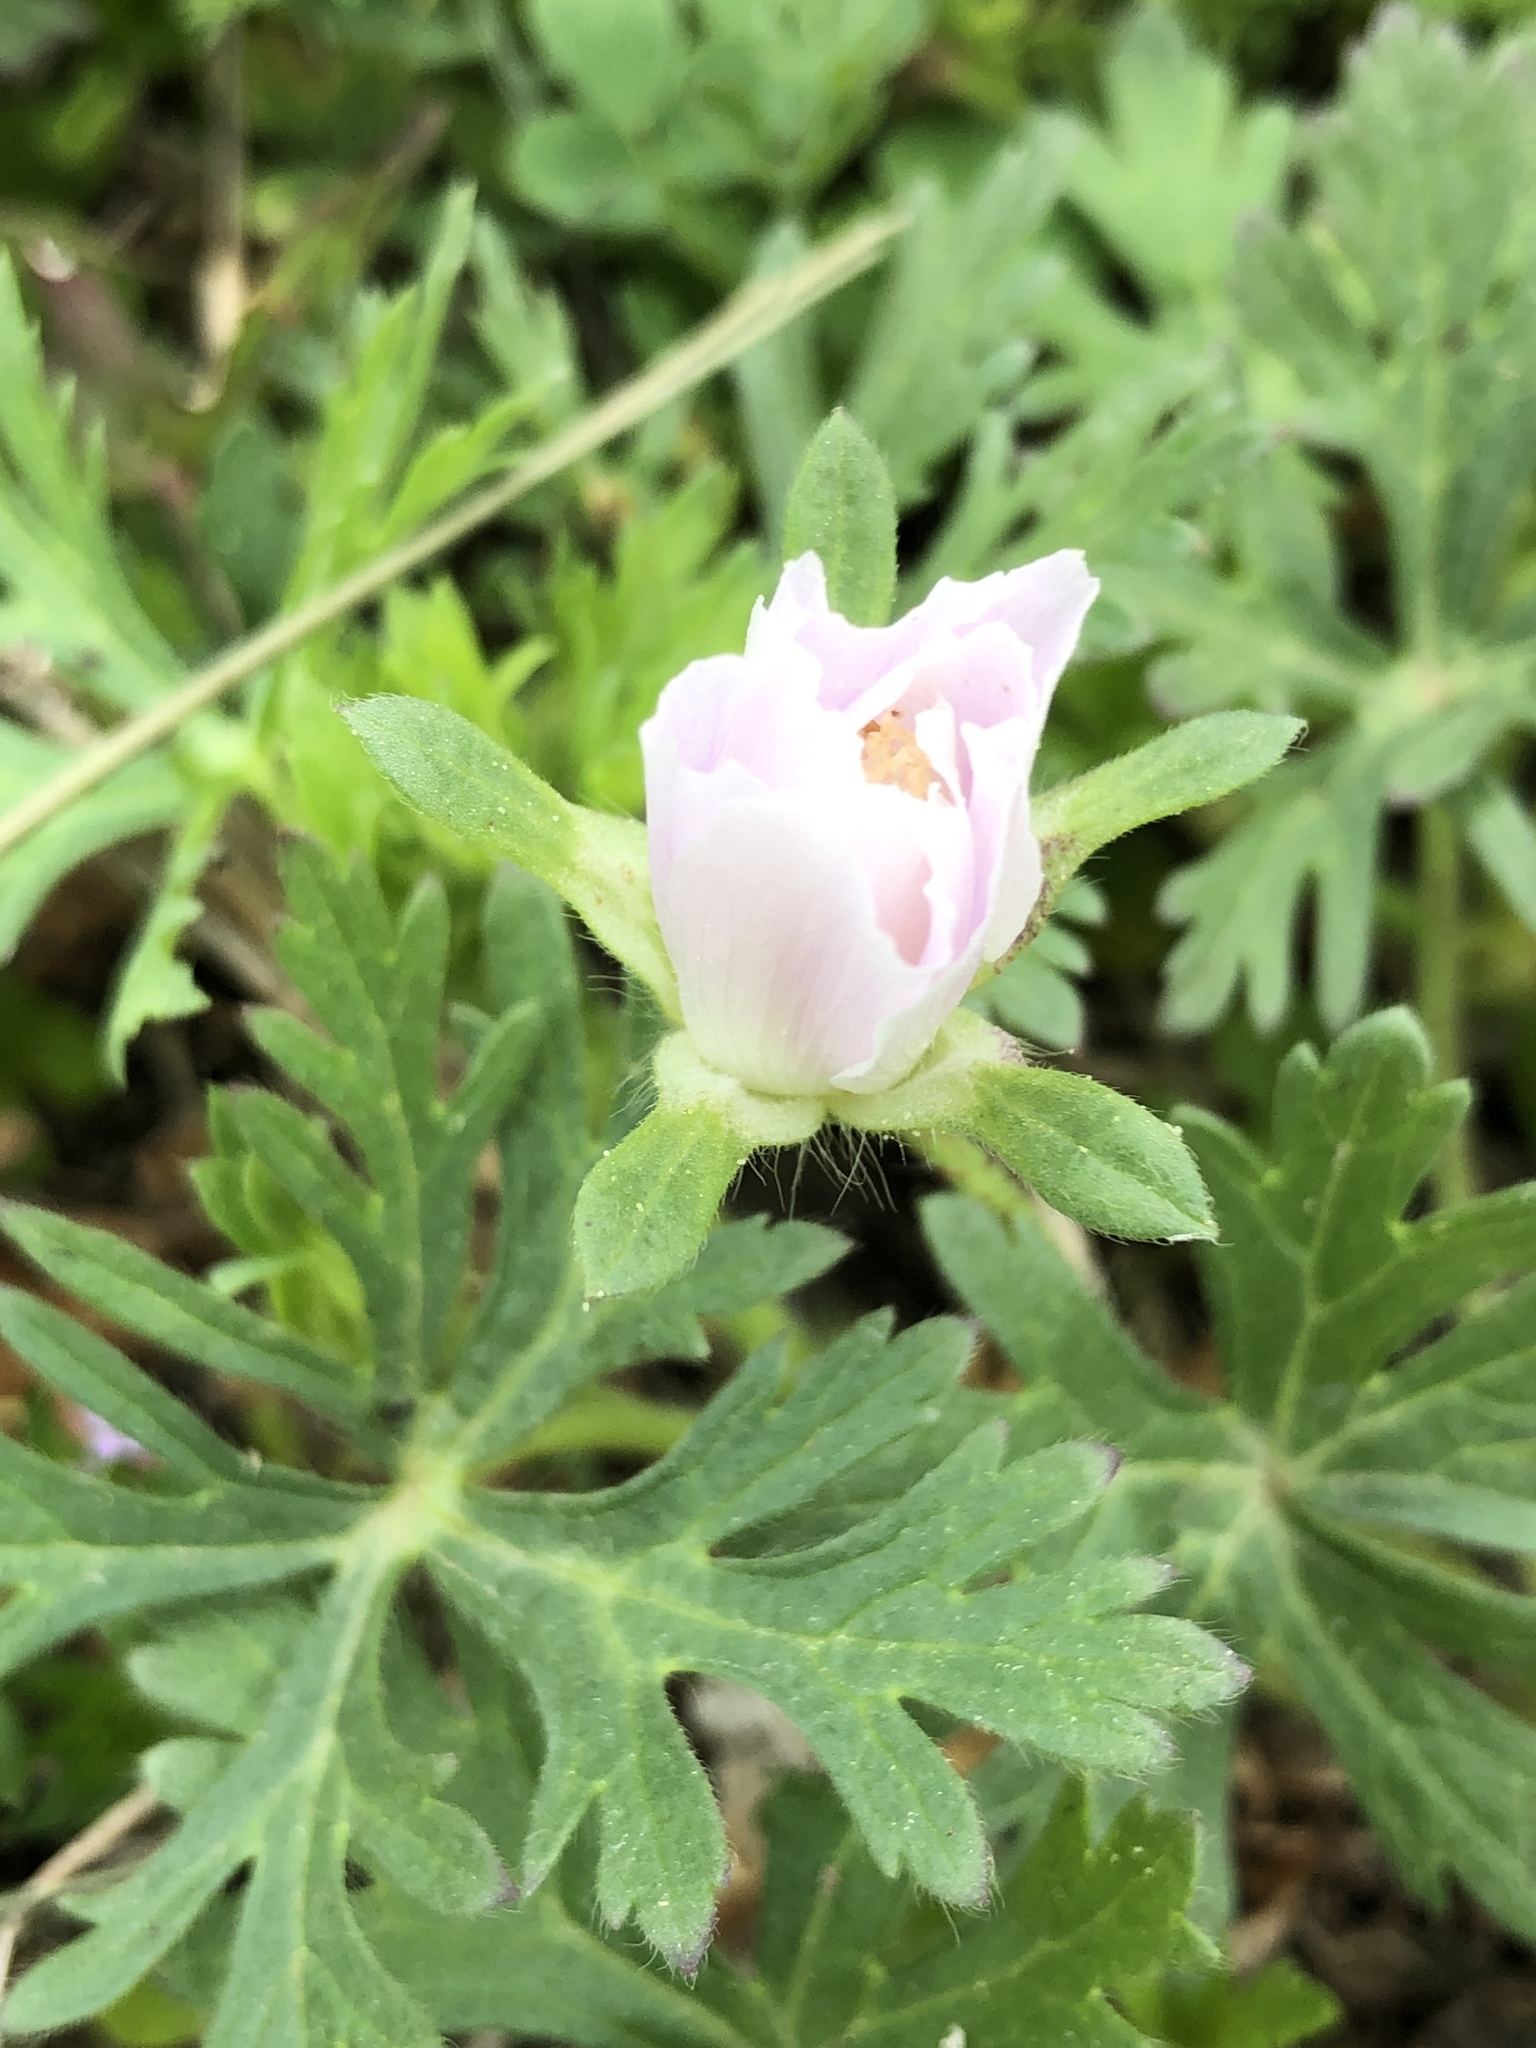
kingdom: Plantae
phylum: Tracheophyta
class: Magnoliopsida
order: Malvales
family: Malvaceae
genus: Callirhoe
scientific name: Callirhoe involucrata
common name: Purple poppy-mallow
